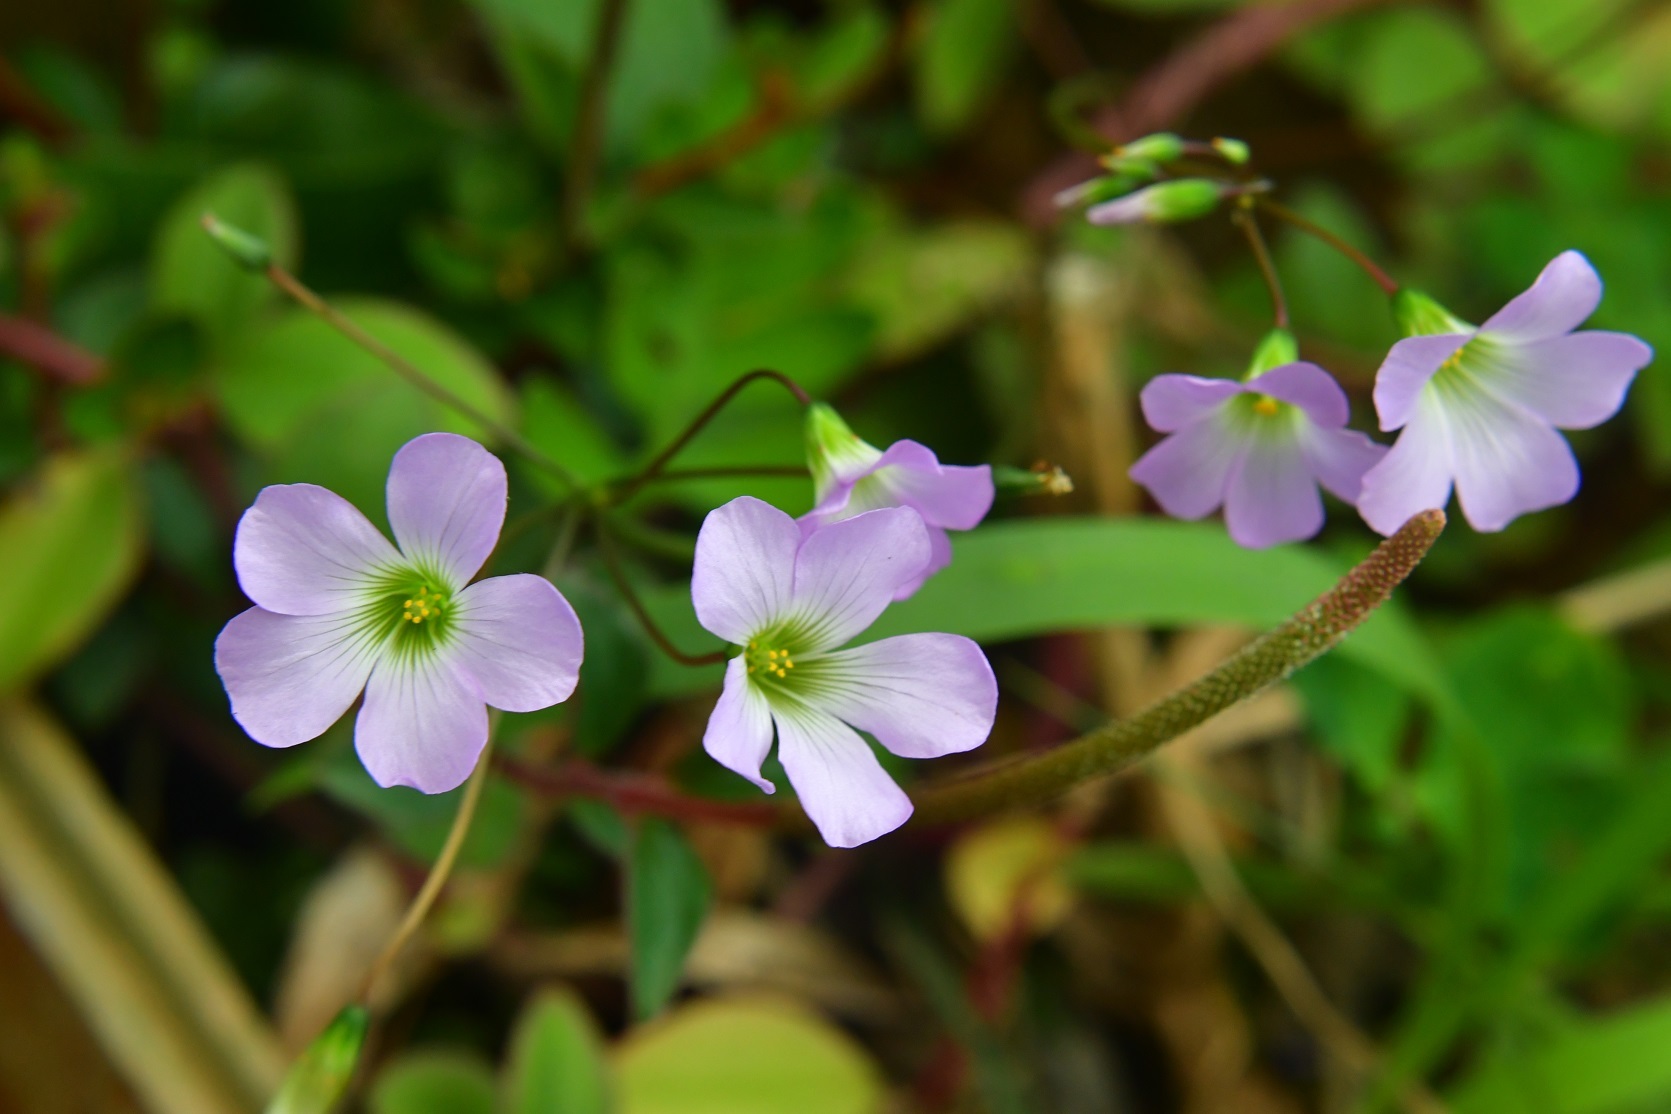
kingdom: Plantae
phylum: Tracheophyta
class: Magnoliopsida
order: Oxalidales
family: Oxalidaceae
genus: Oxalis
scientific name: Oxalis latifolia
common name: Garden pink-sorrel
